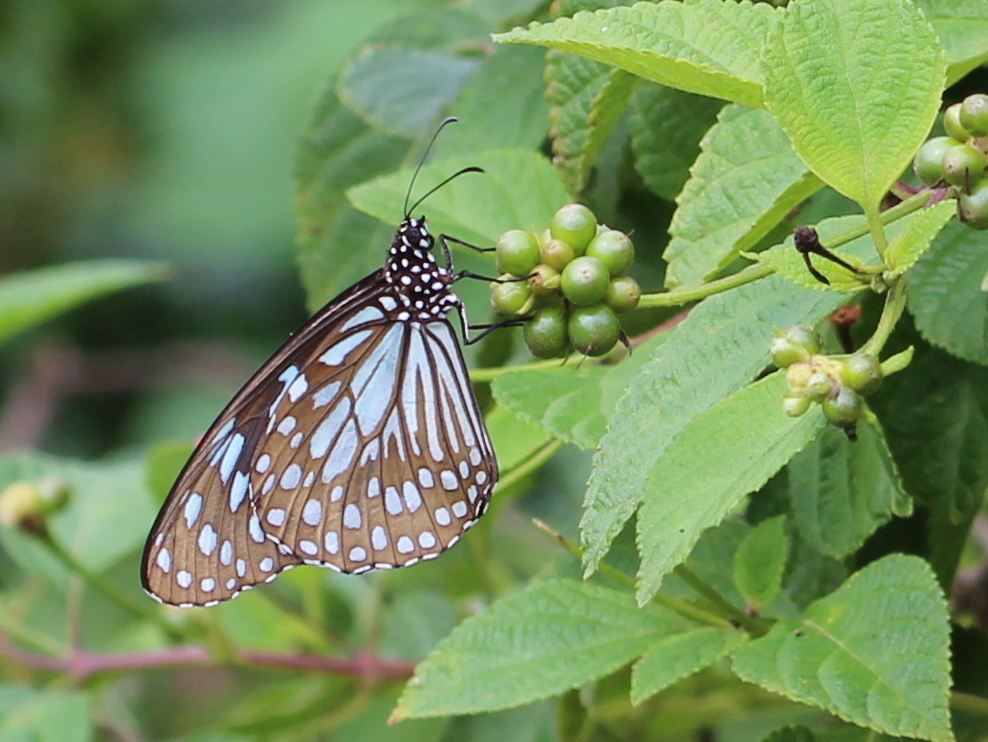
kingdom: Animalia
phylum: Arthropoda
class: Insecta
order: Lepidoptera
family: Nymphalidae
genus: Tirumala
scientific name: Tirumala limniace
